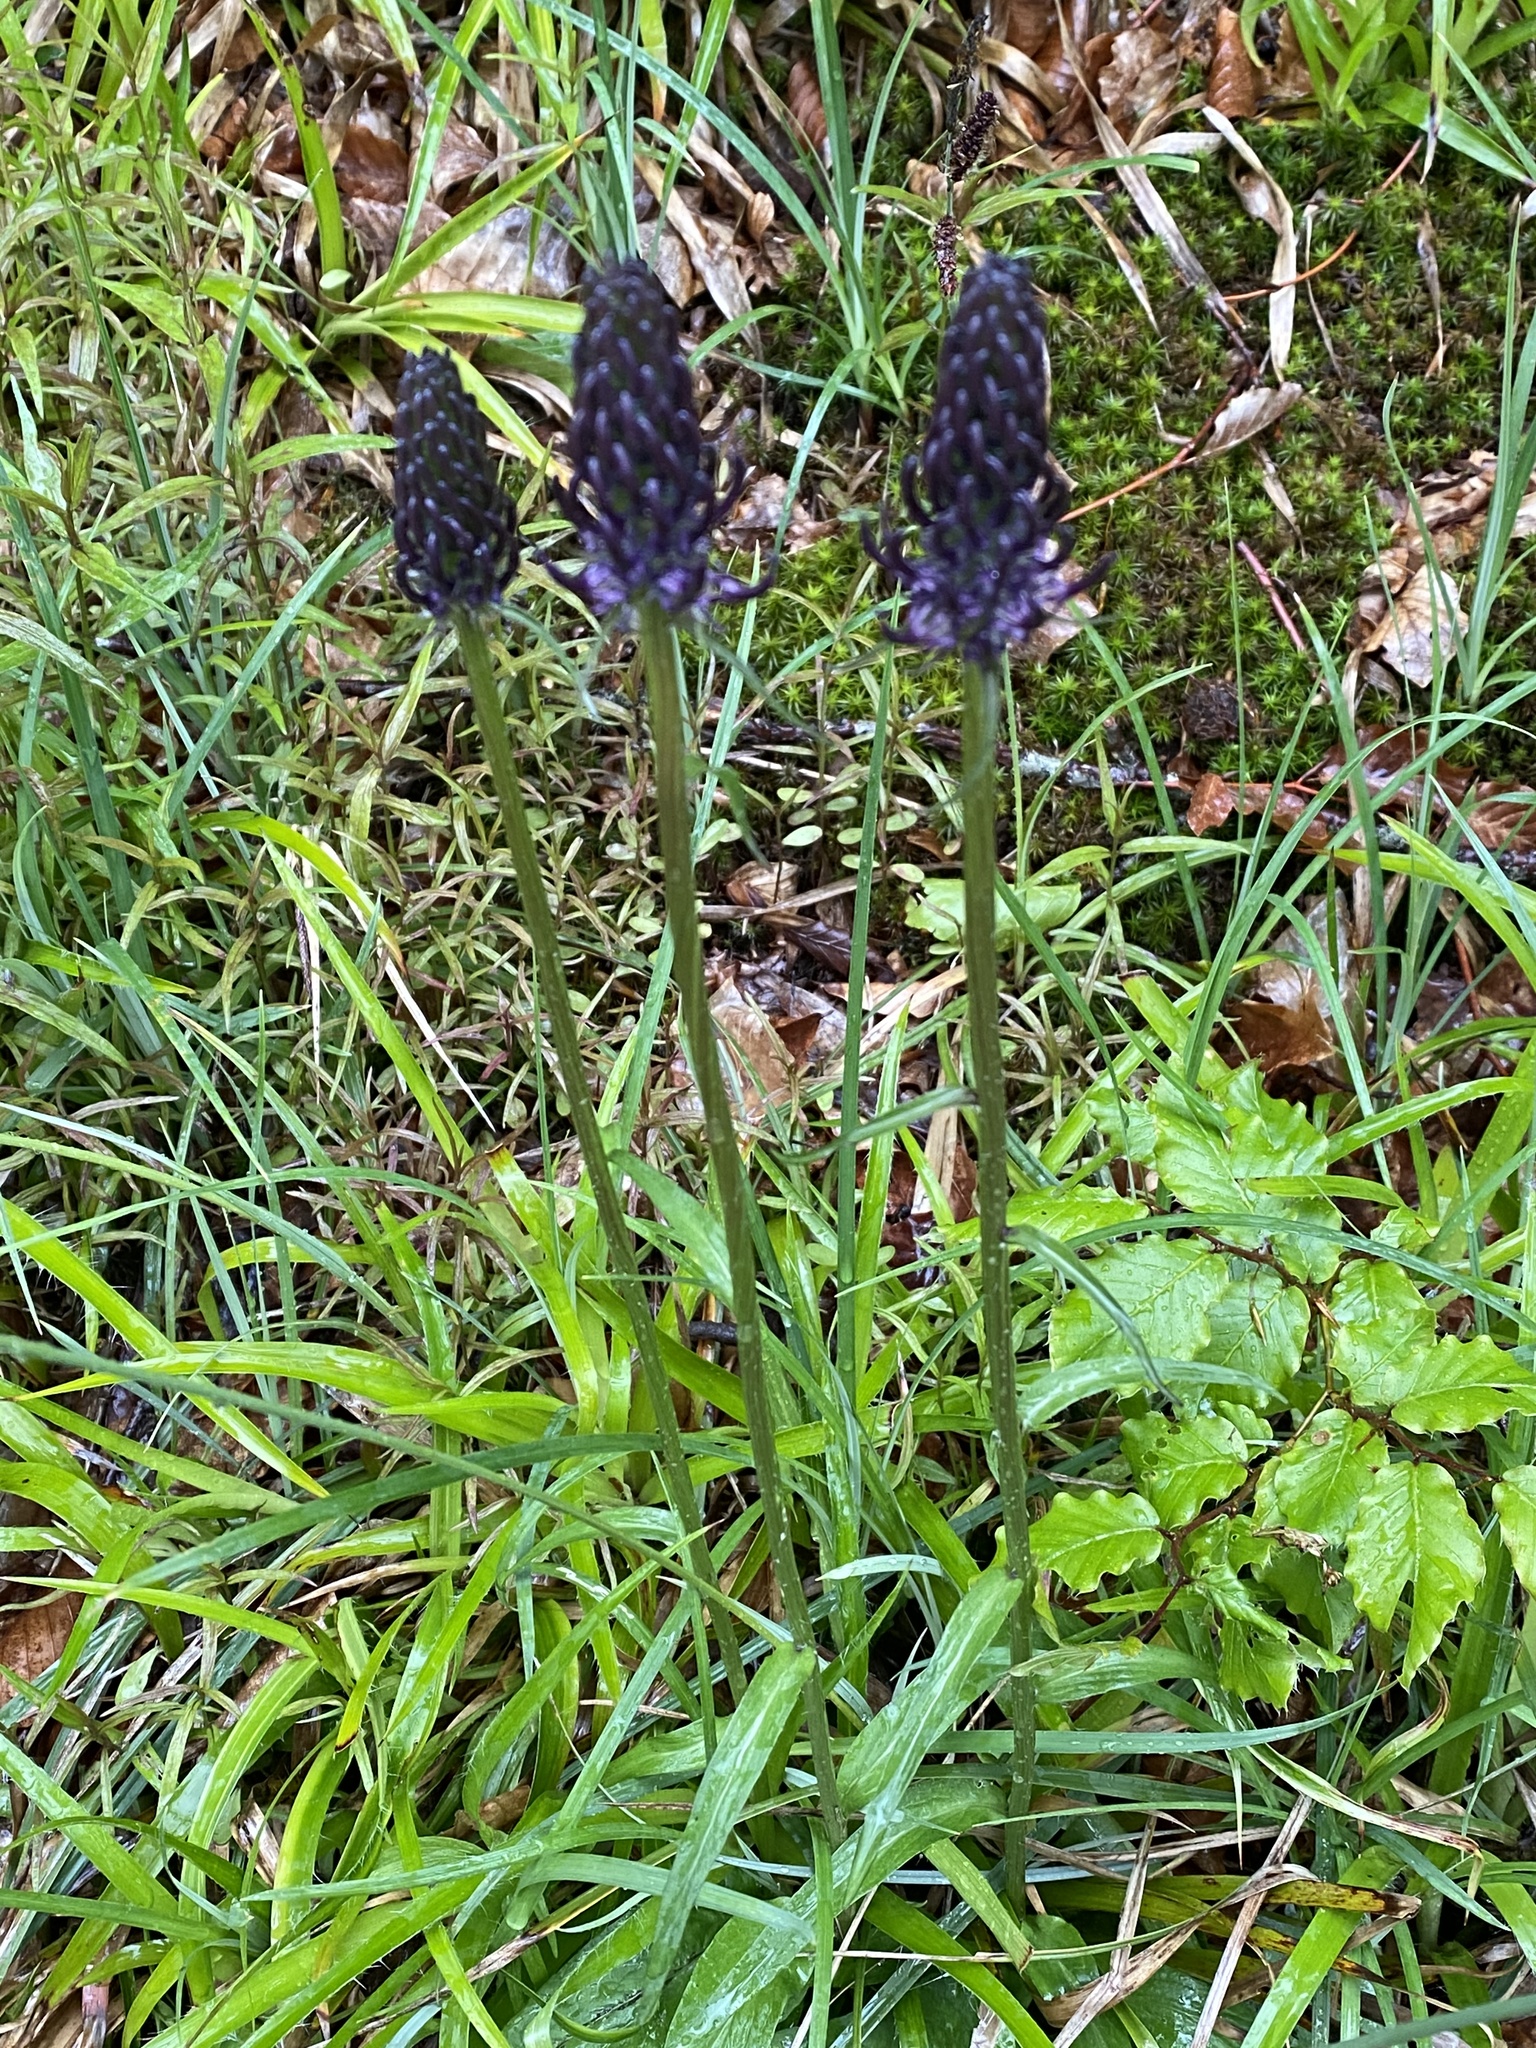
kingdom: Plantae
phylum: Tracheophyta
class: Magnoliopsida
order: Asterales
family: Campanulaceae
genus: Phyteuma
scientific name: Phyteuma nigrum
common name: Black rampion
